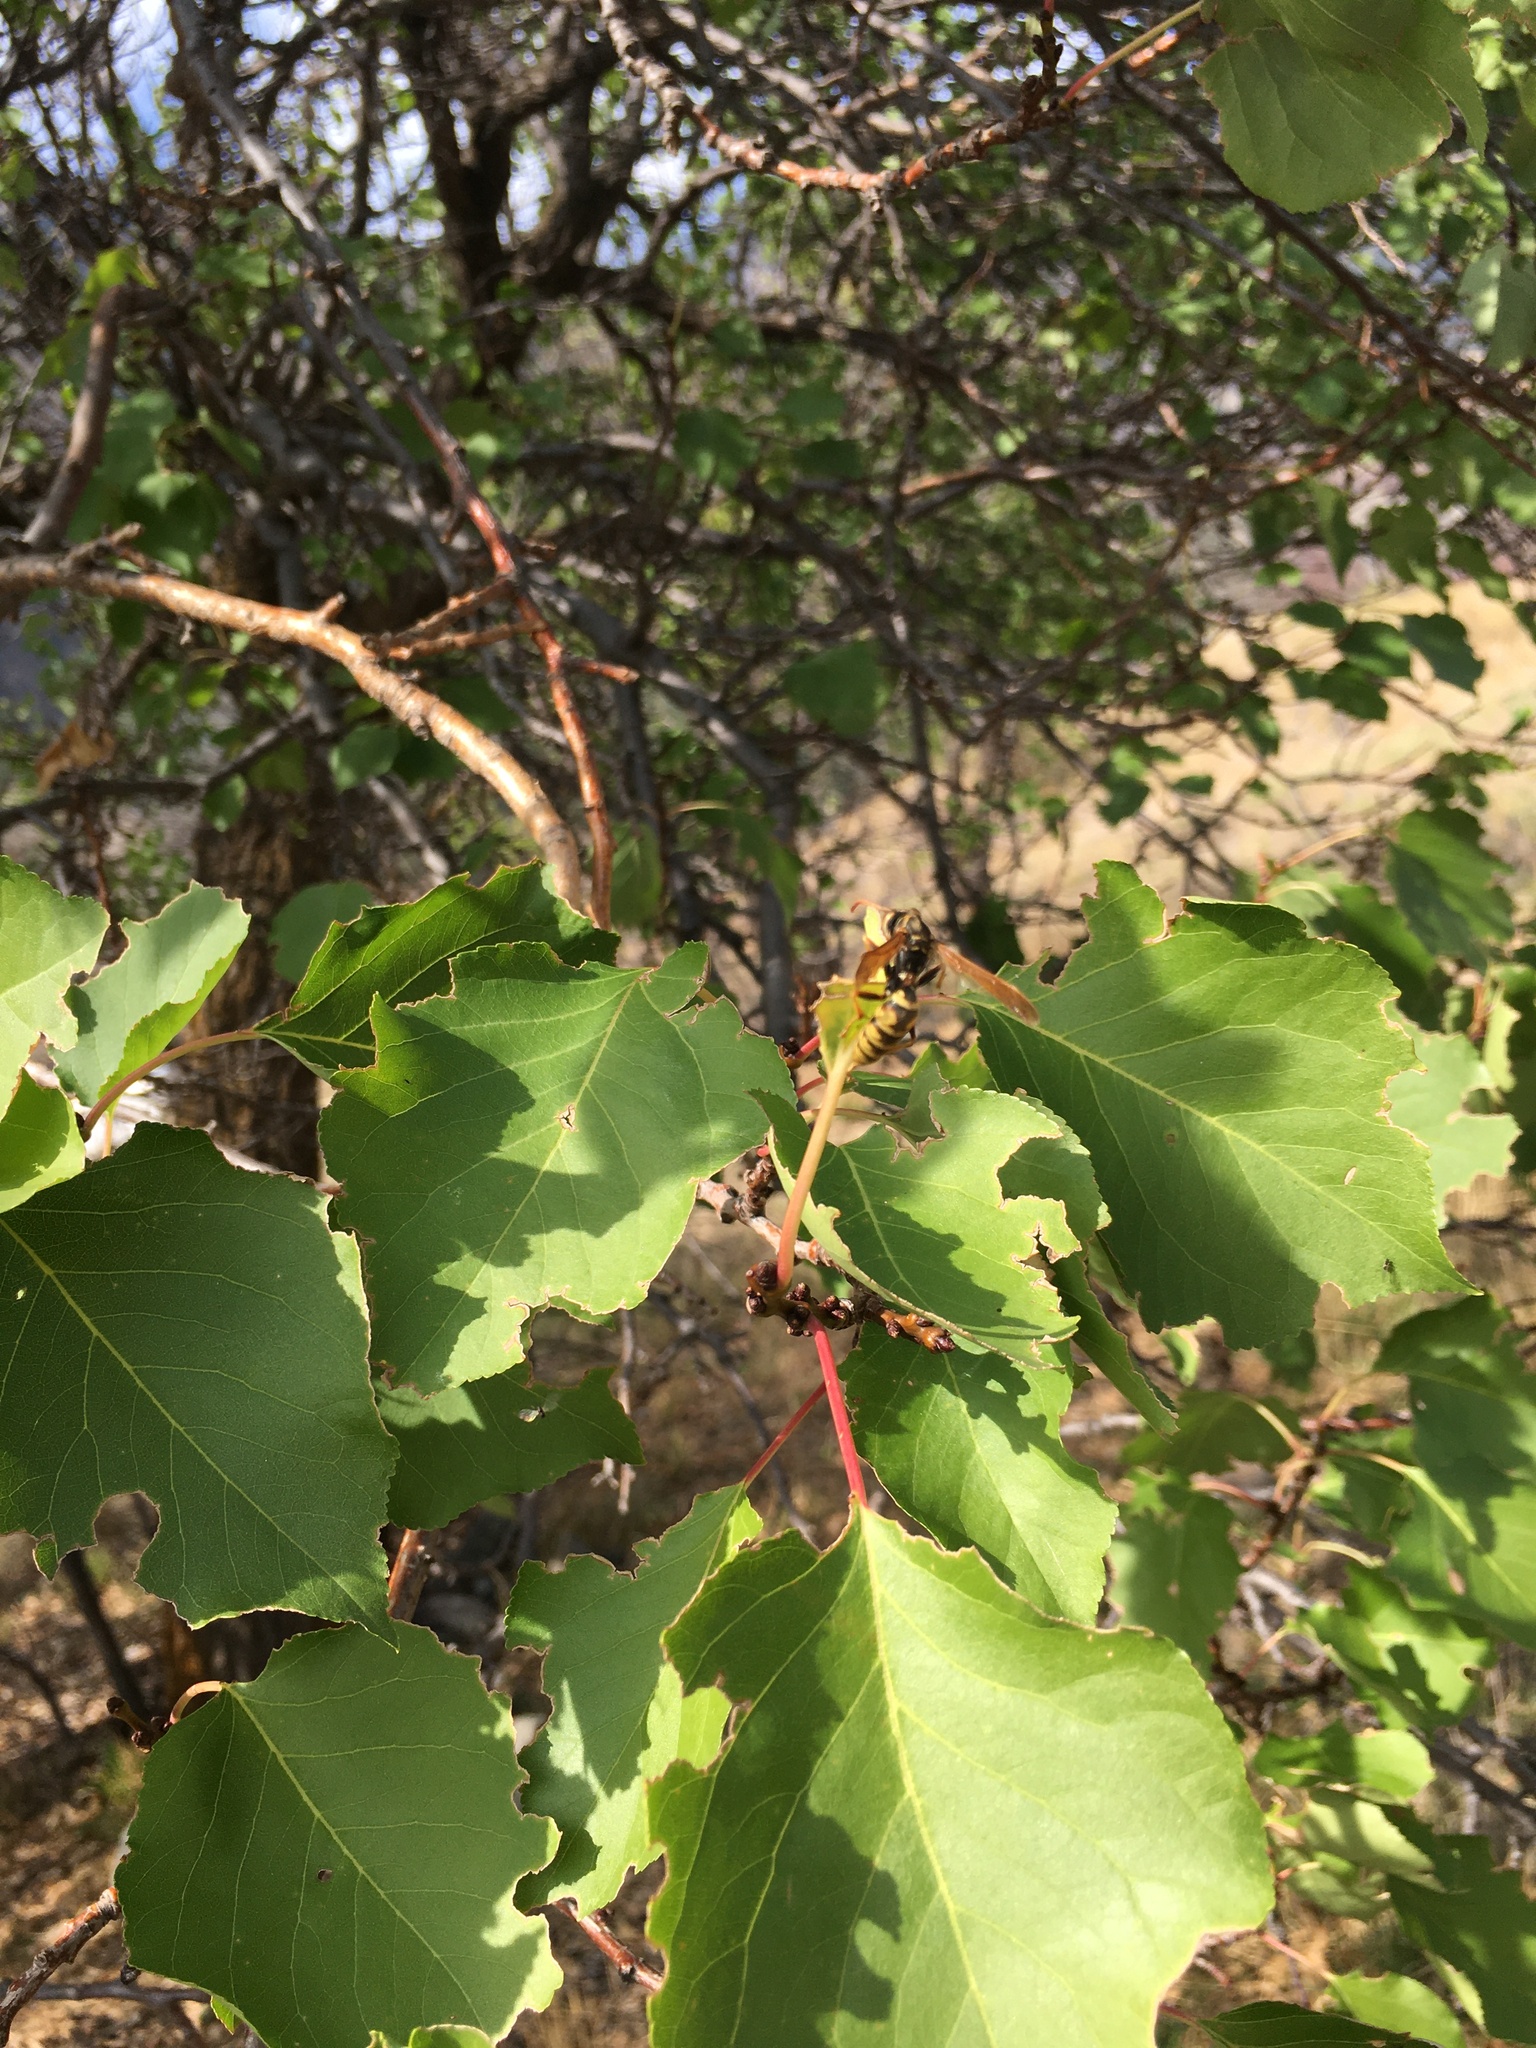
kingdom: Animalia
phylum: Arthropoda
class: Insecta
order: Hymenoptera
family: Eumenidae
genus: Polistes
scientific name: Polistes aurifer
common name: Paper wasp
